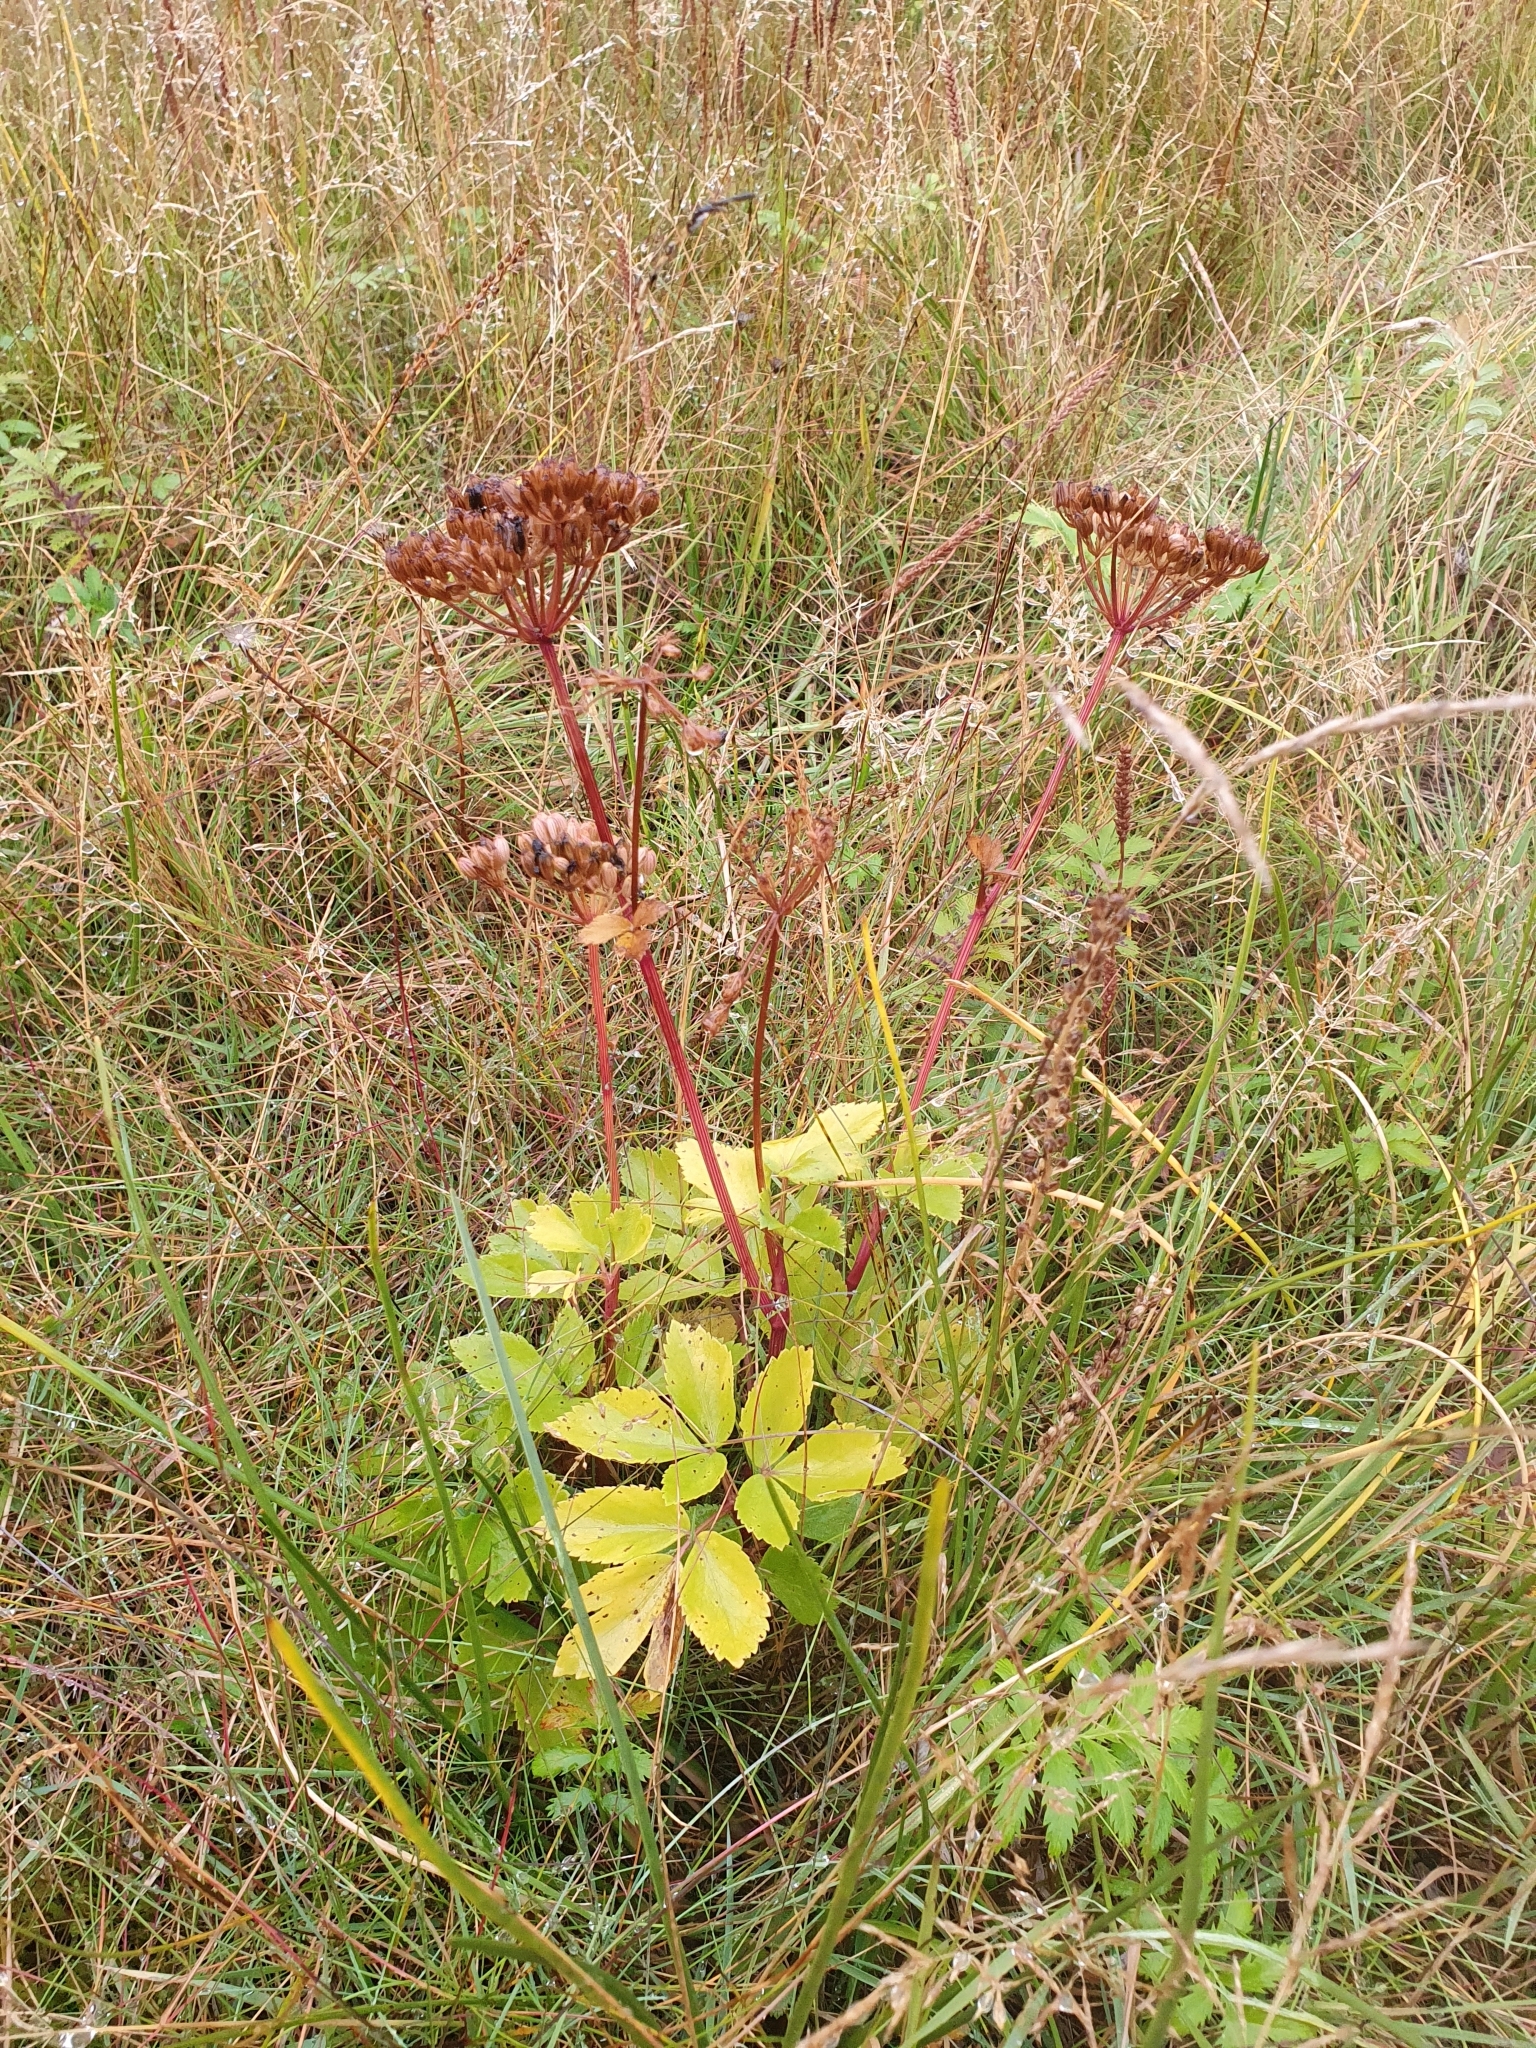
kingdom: Plantae
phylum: Tracheophyta
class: Magnoliopsida
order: Apiales
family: Apiaceae
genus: Ligusticum
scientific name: Ligusticum scothicum
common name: Beach lovage
